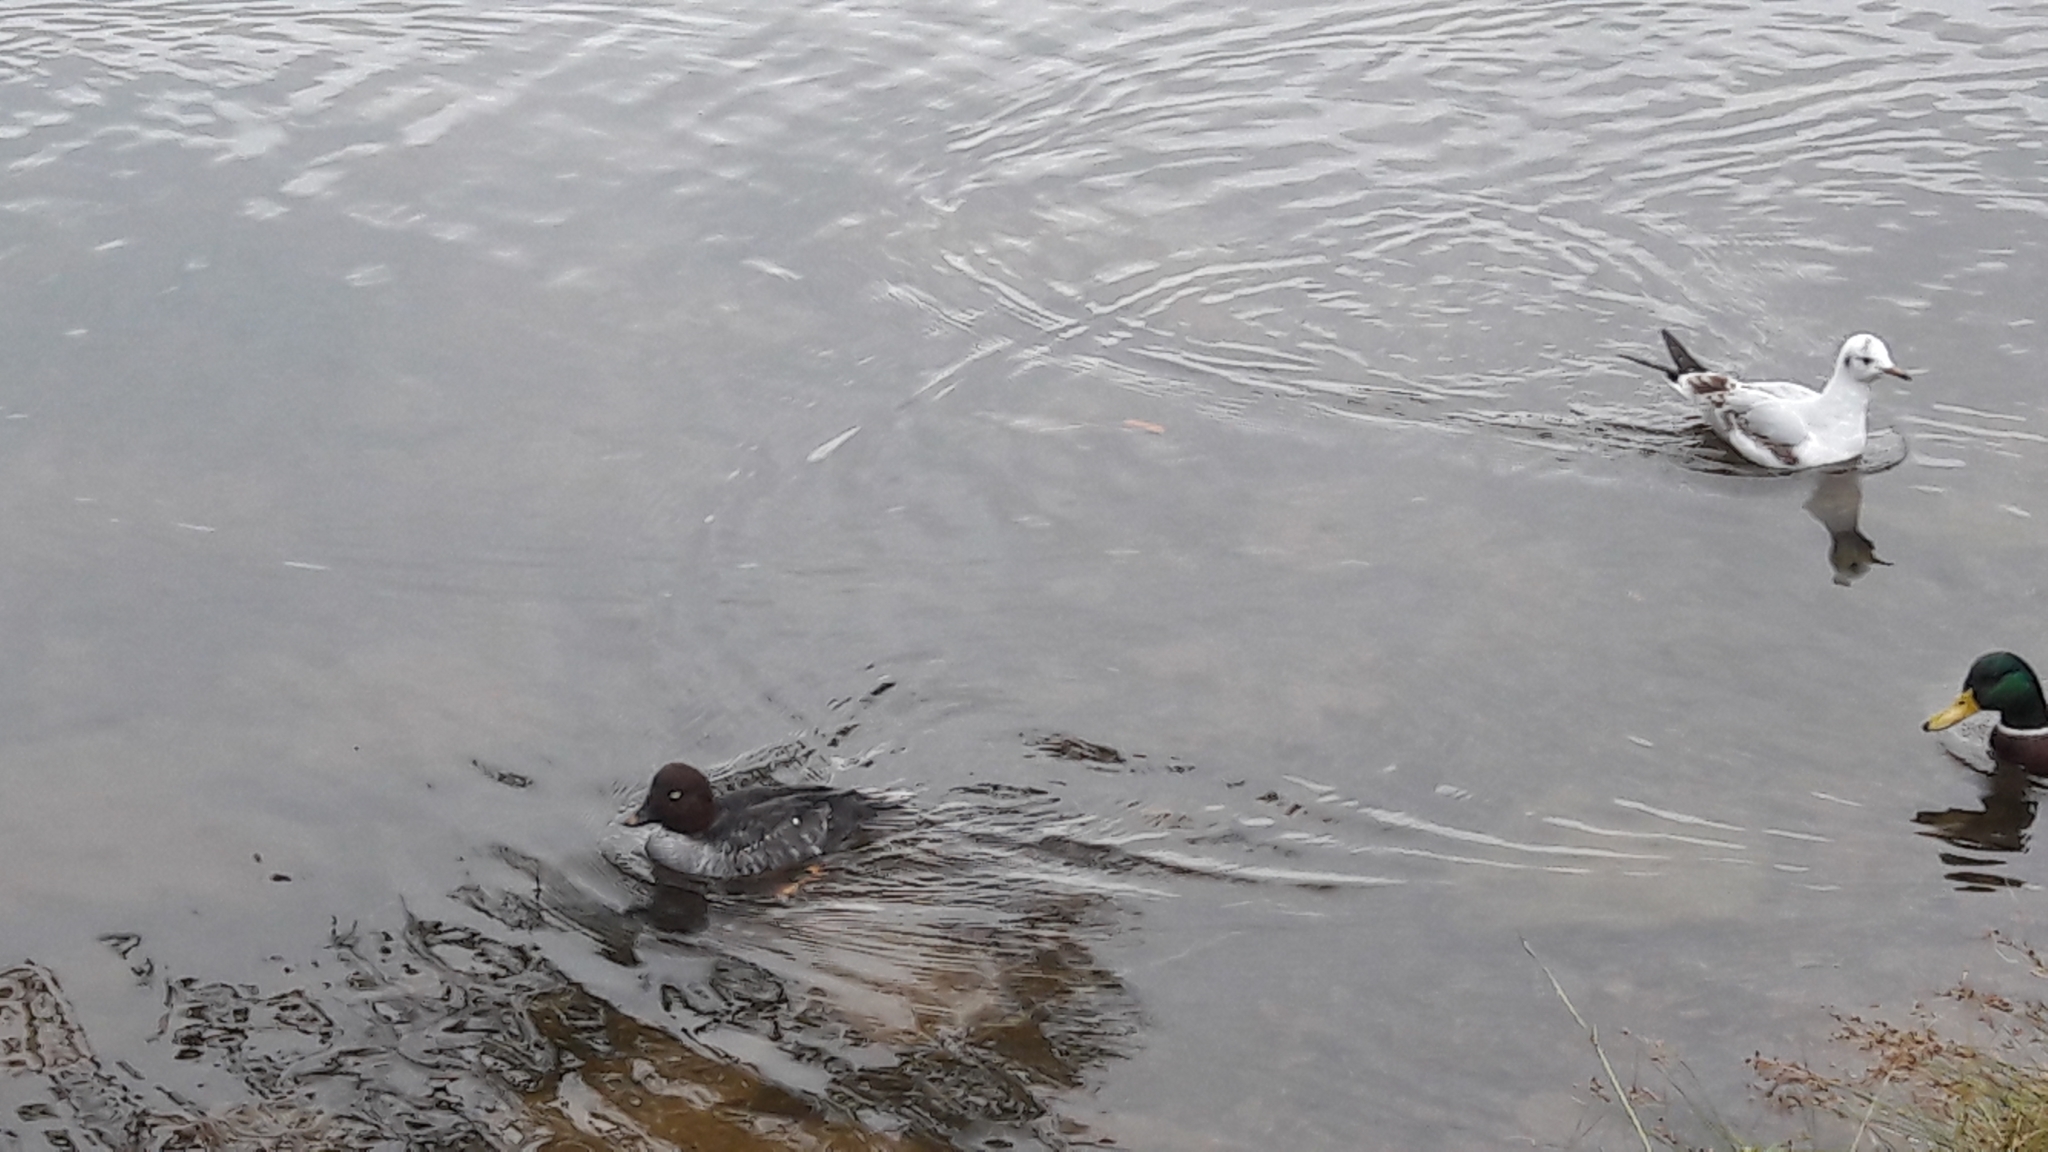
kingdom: Animalia
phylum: Chordata
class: Aves
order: Anseriformes
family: Anatidae
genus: Bucephala
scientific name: Bucephala clangula
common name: Common goldeneye
